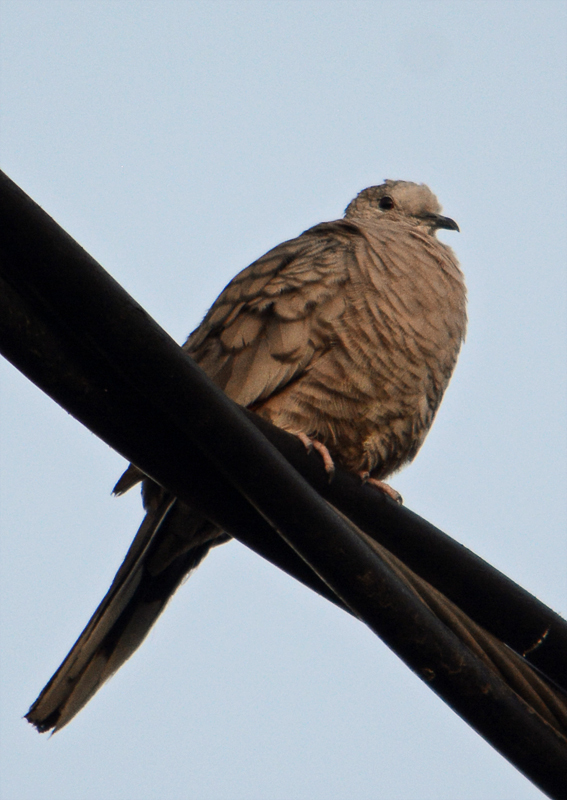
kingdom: Animalia
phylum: Chordata
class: Aves
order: Columbiformes
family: Columbidae
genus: Columbina
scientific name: Columbina inca
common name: Inca dove
